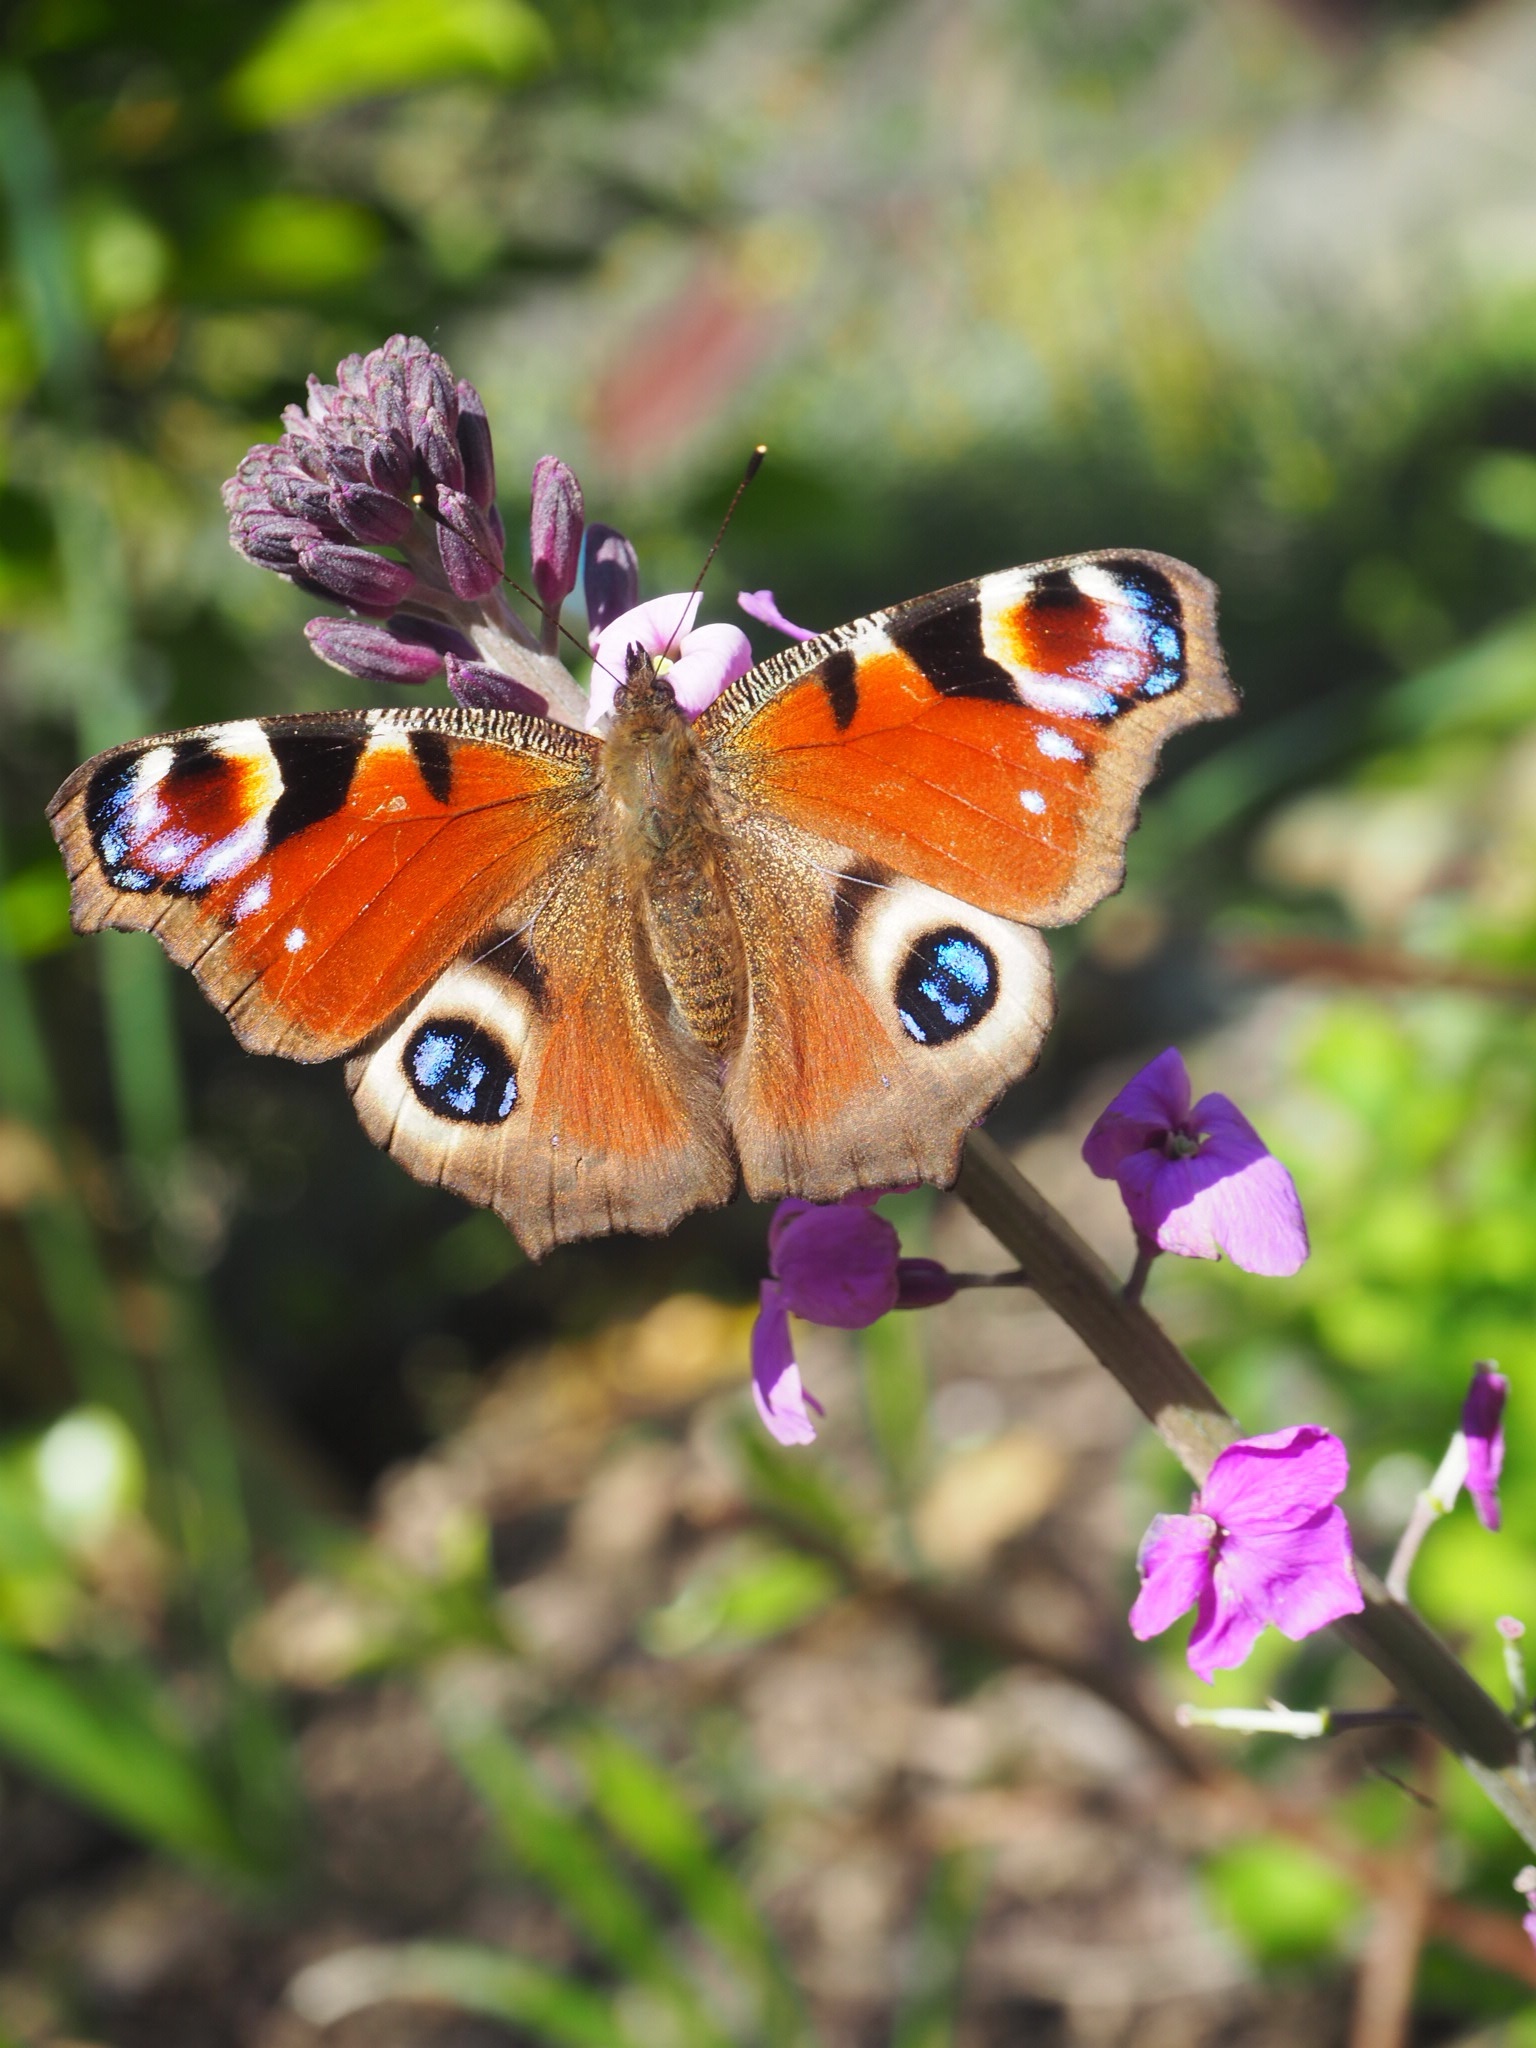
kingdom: Animalia
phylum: Arthropoda
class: Insecta
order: Lepidoptera
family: Nymphalidae
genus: Aglais
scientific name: Aglais io
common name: Peacock
